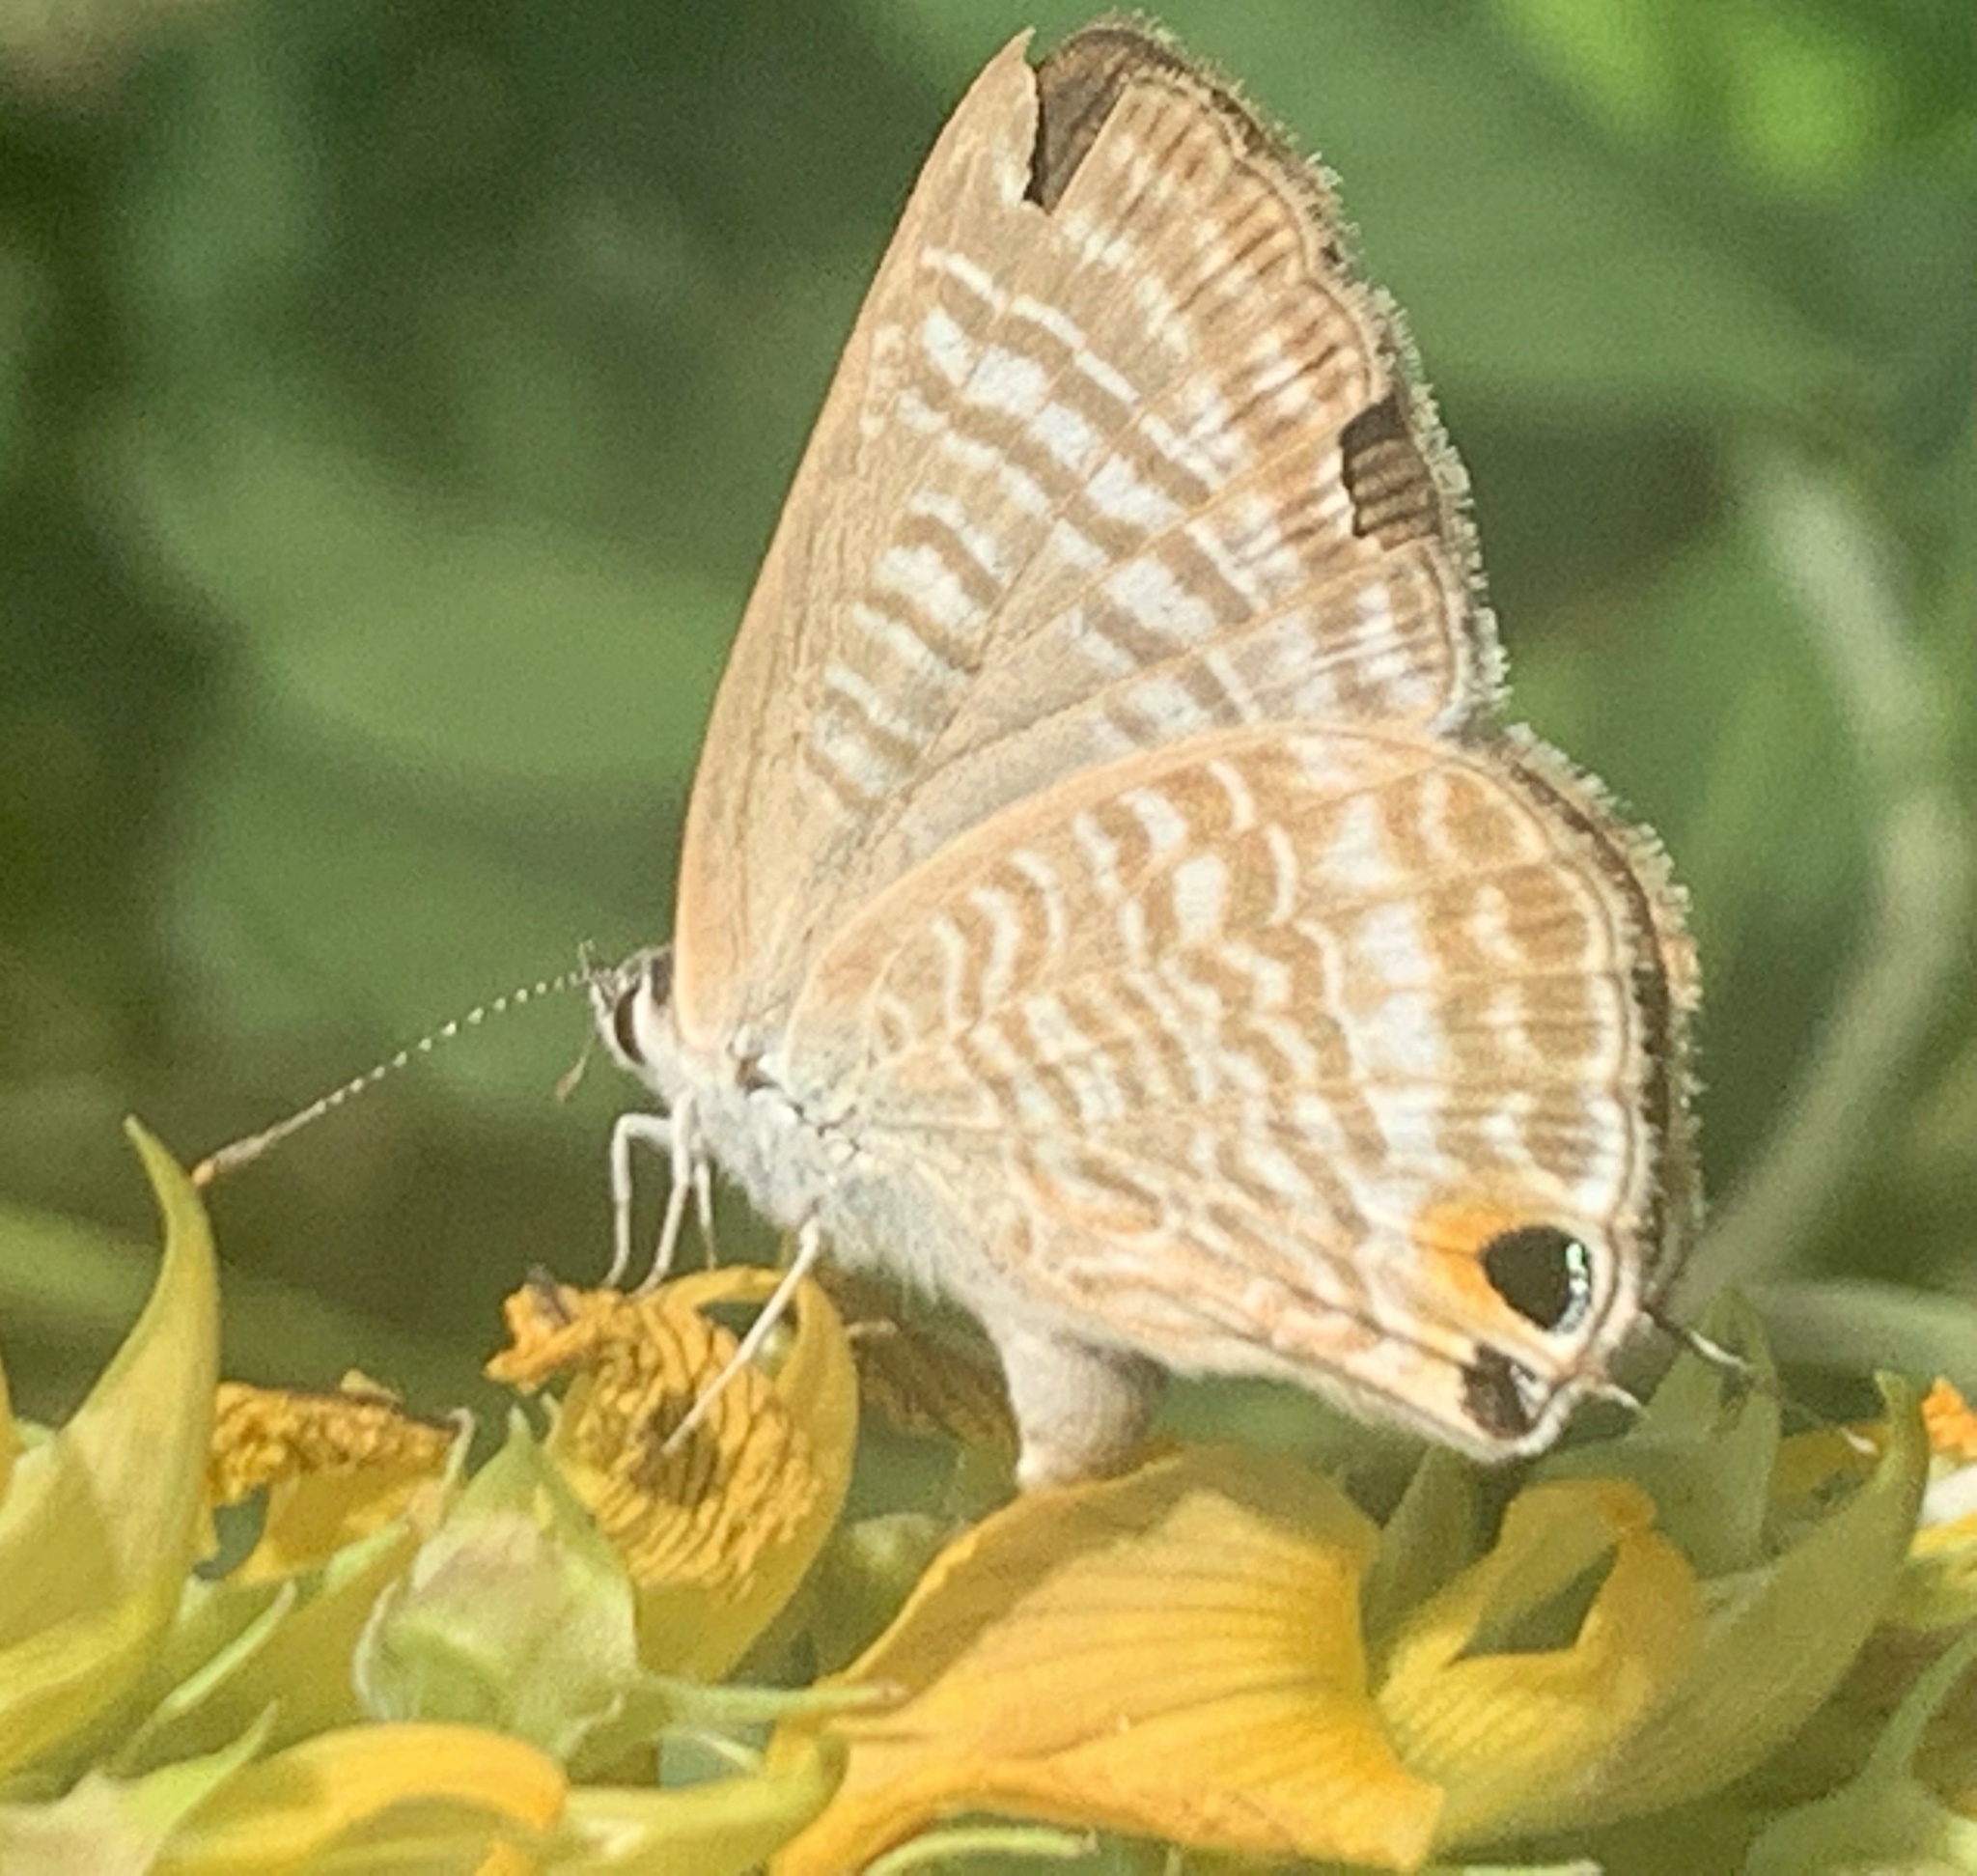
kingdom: Animalia
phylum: Arthropoda
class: Insecta
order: Lepidoptera
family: Lycaenidae
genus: Lampides
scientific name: Lampides boeticus
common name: Long-tailed blue
